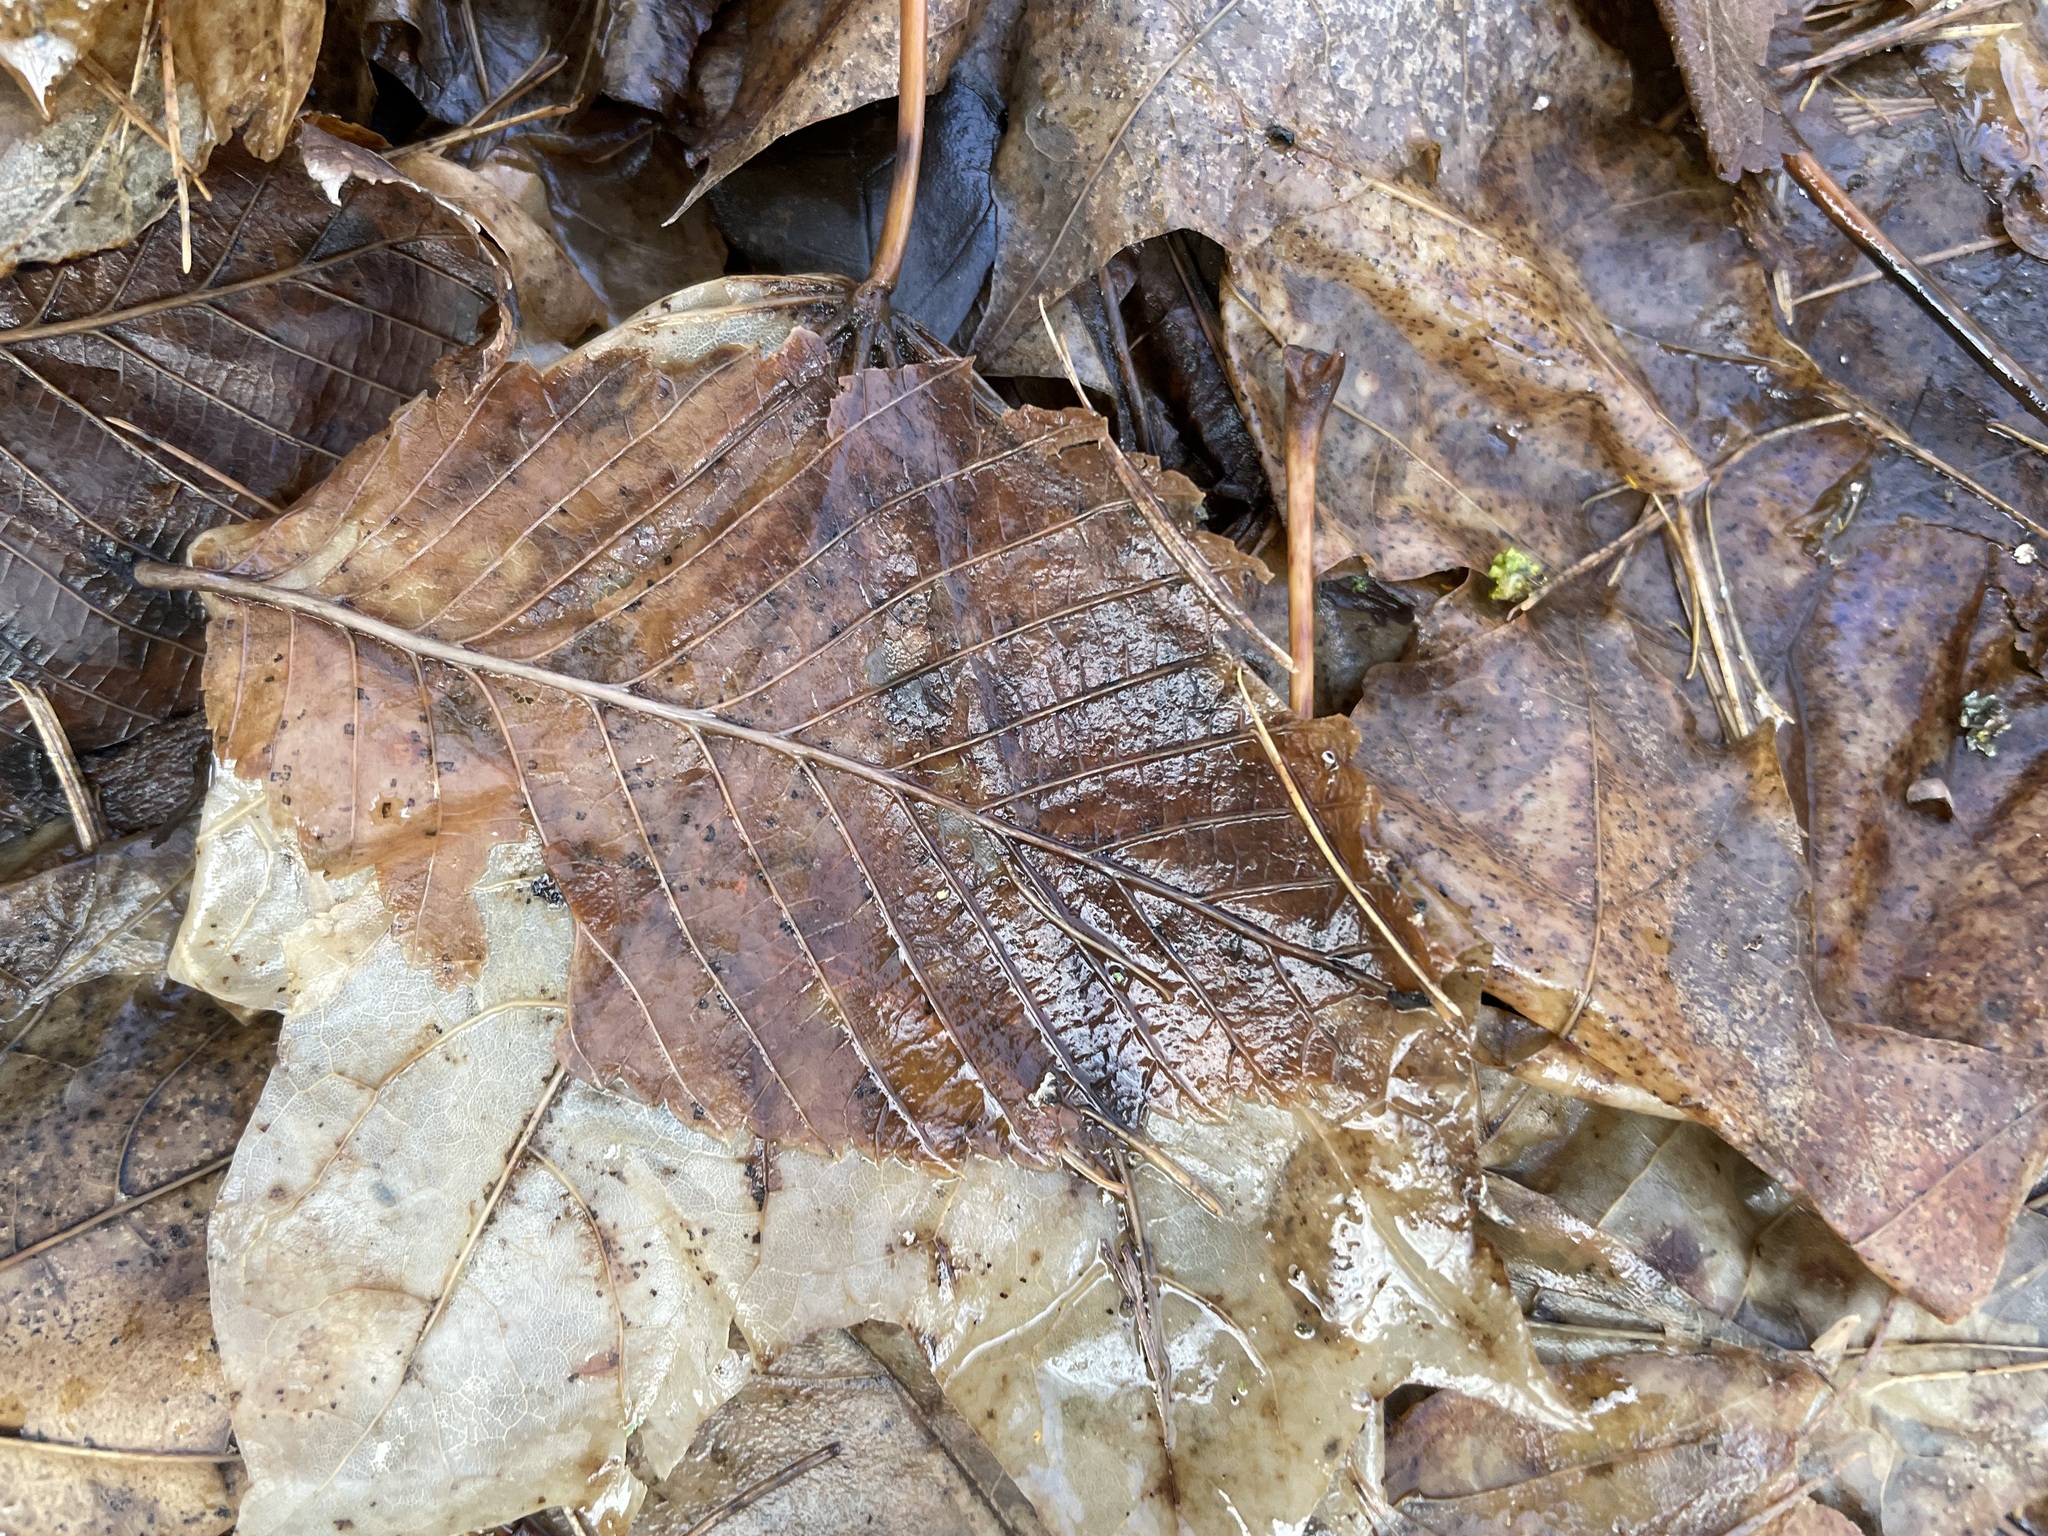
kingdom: Plantae
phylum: Tracheophyta
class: Magnoliopsida
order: Rosales
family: Ulmaceae
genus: Ulmus
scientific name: Ulmus laevis
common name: European white-elm
